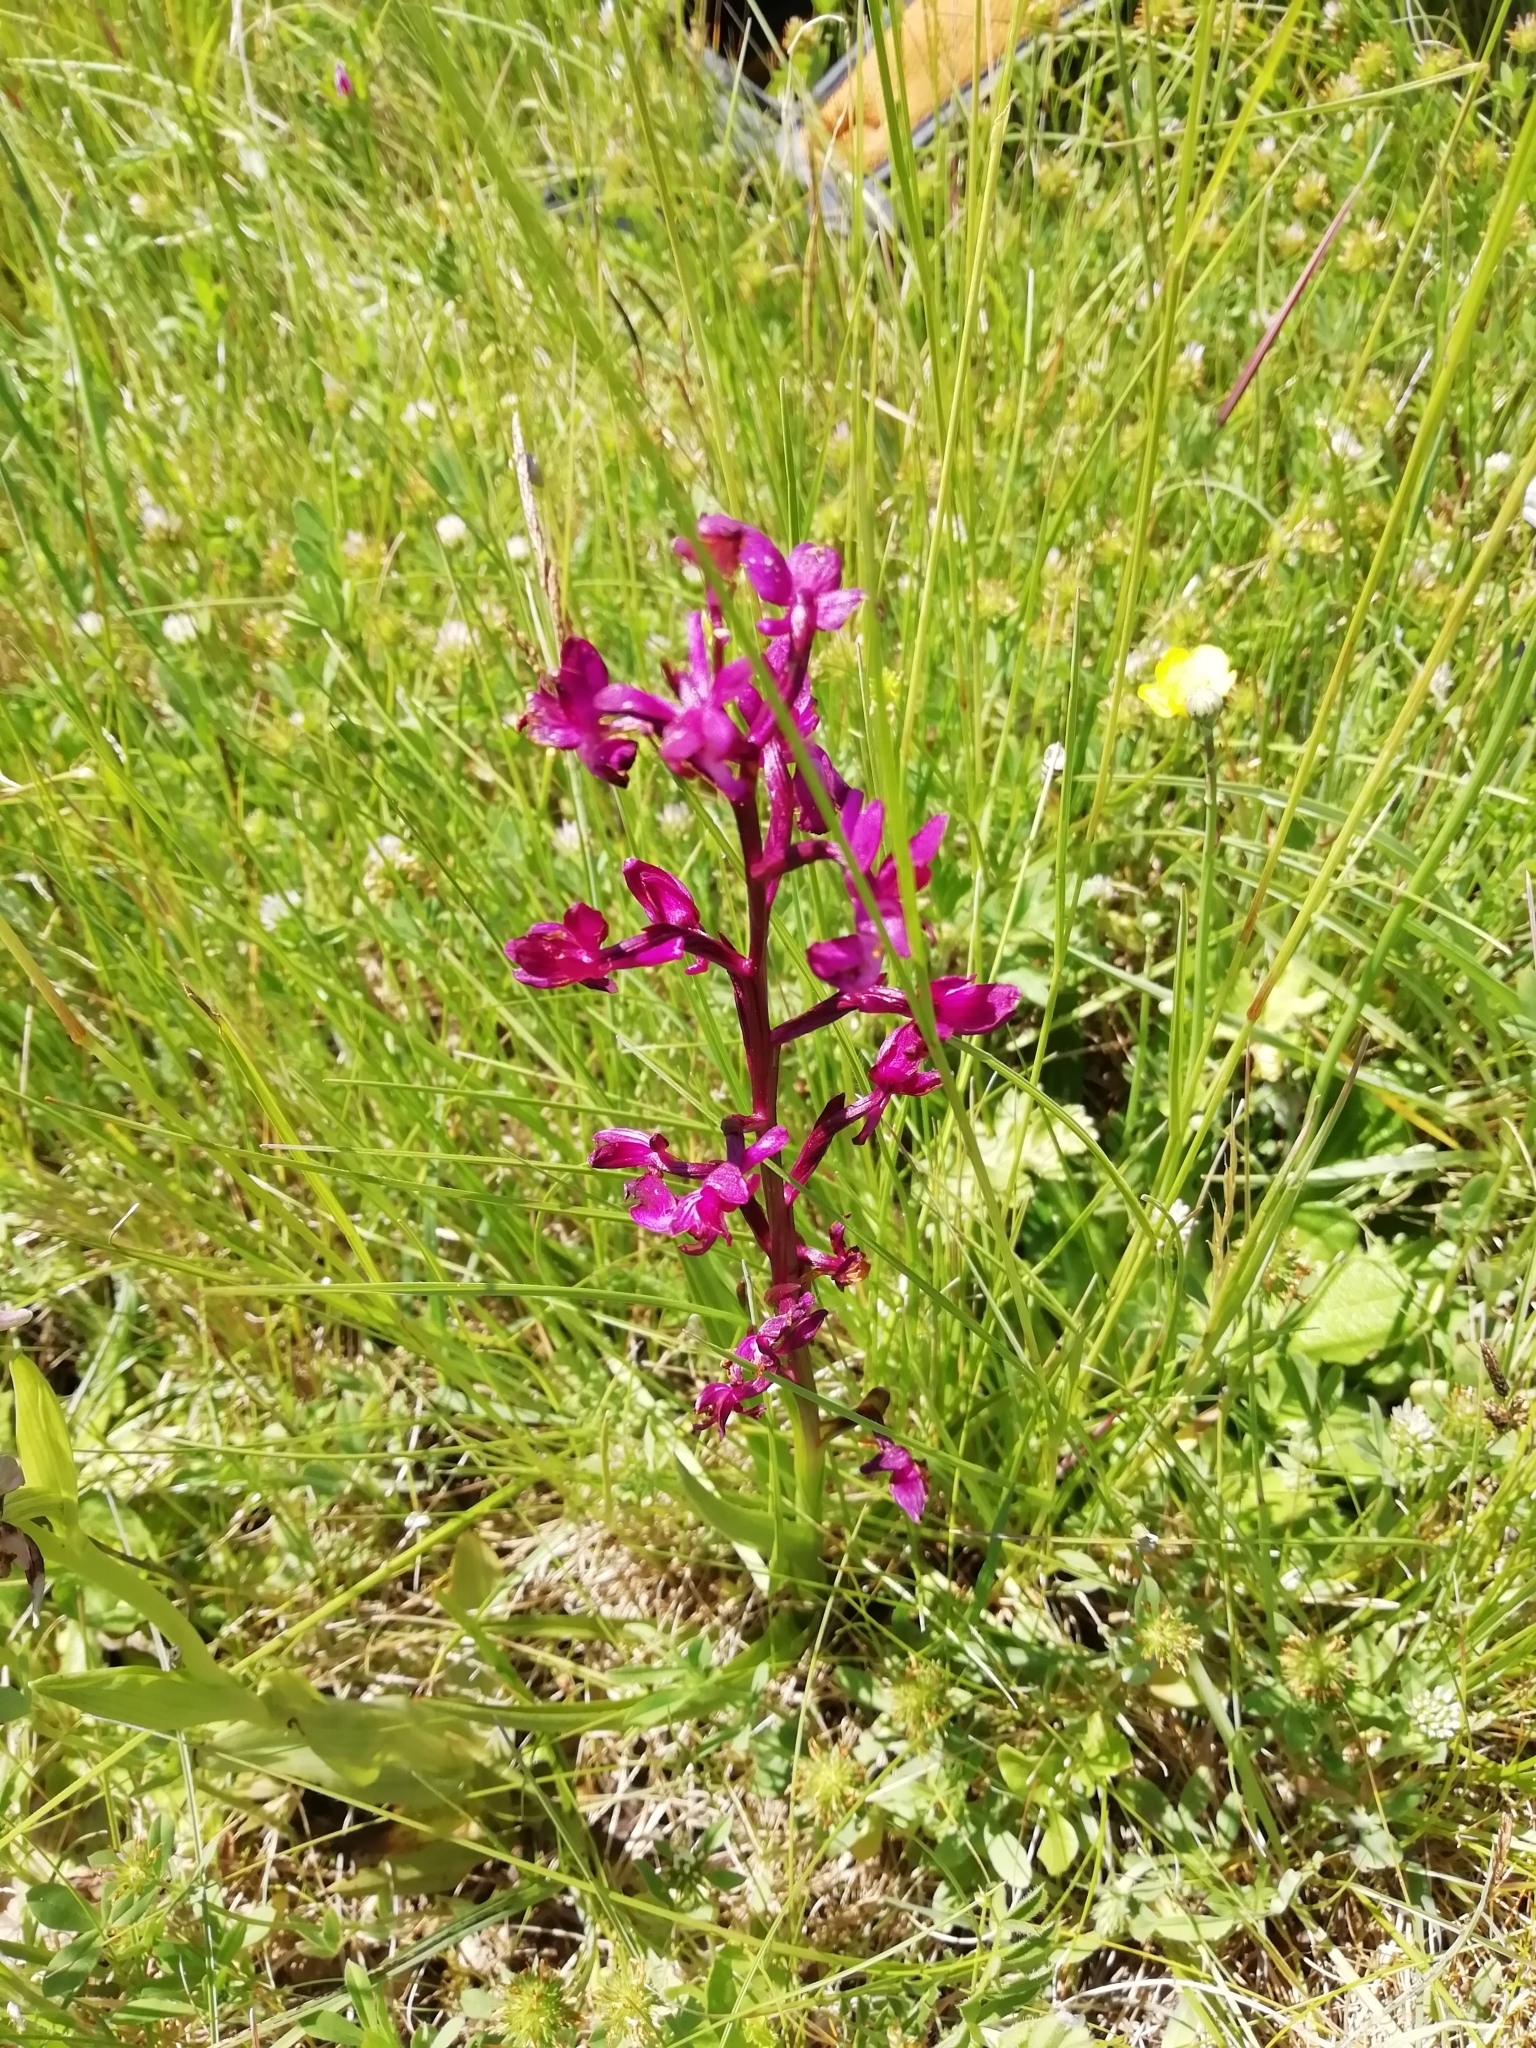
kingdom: Plantae
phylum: Tracheophyta
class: Liliopsida
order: Asparagales
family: Orchidaceae
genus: Anacamptis
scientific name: Anacamptis laxiflora
